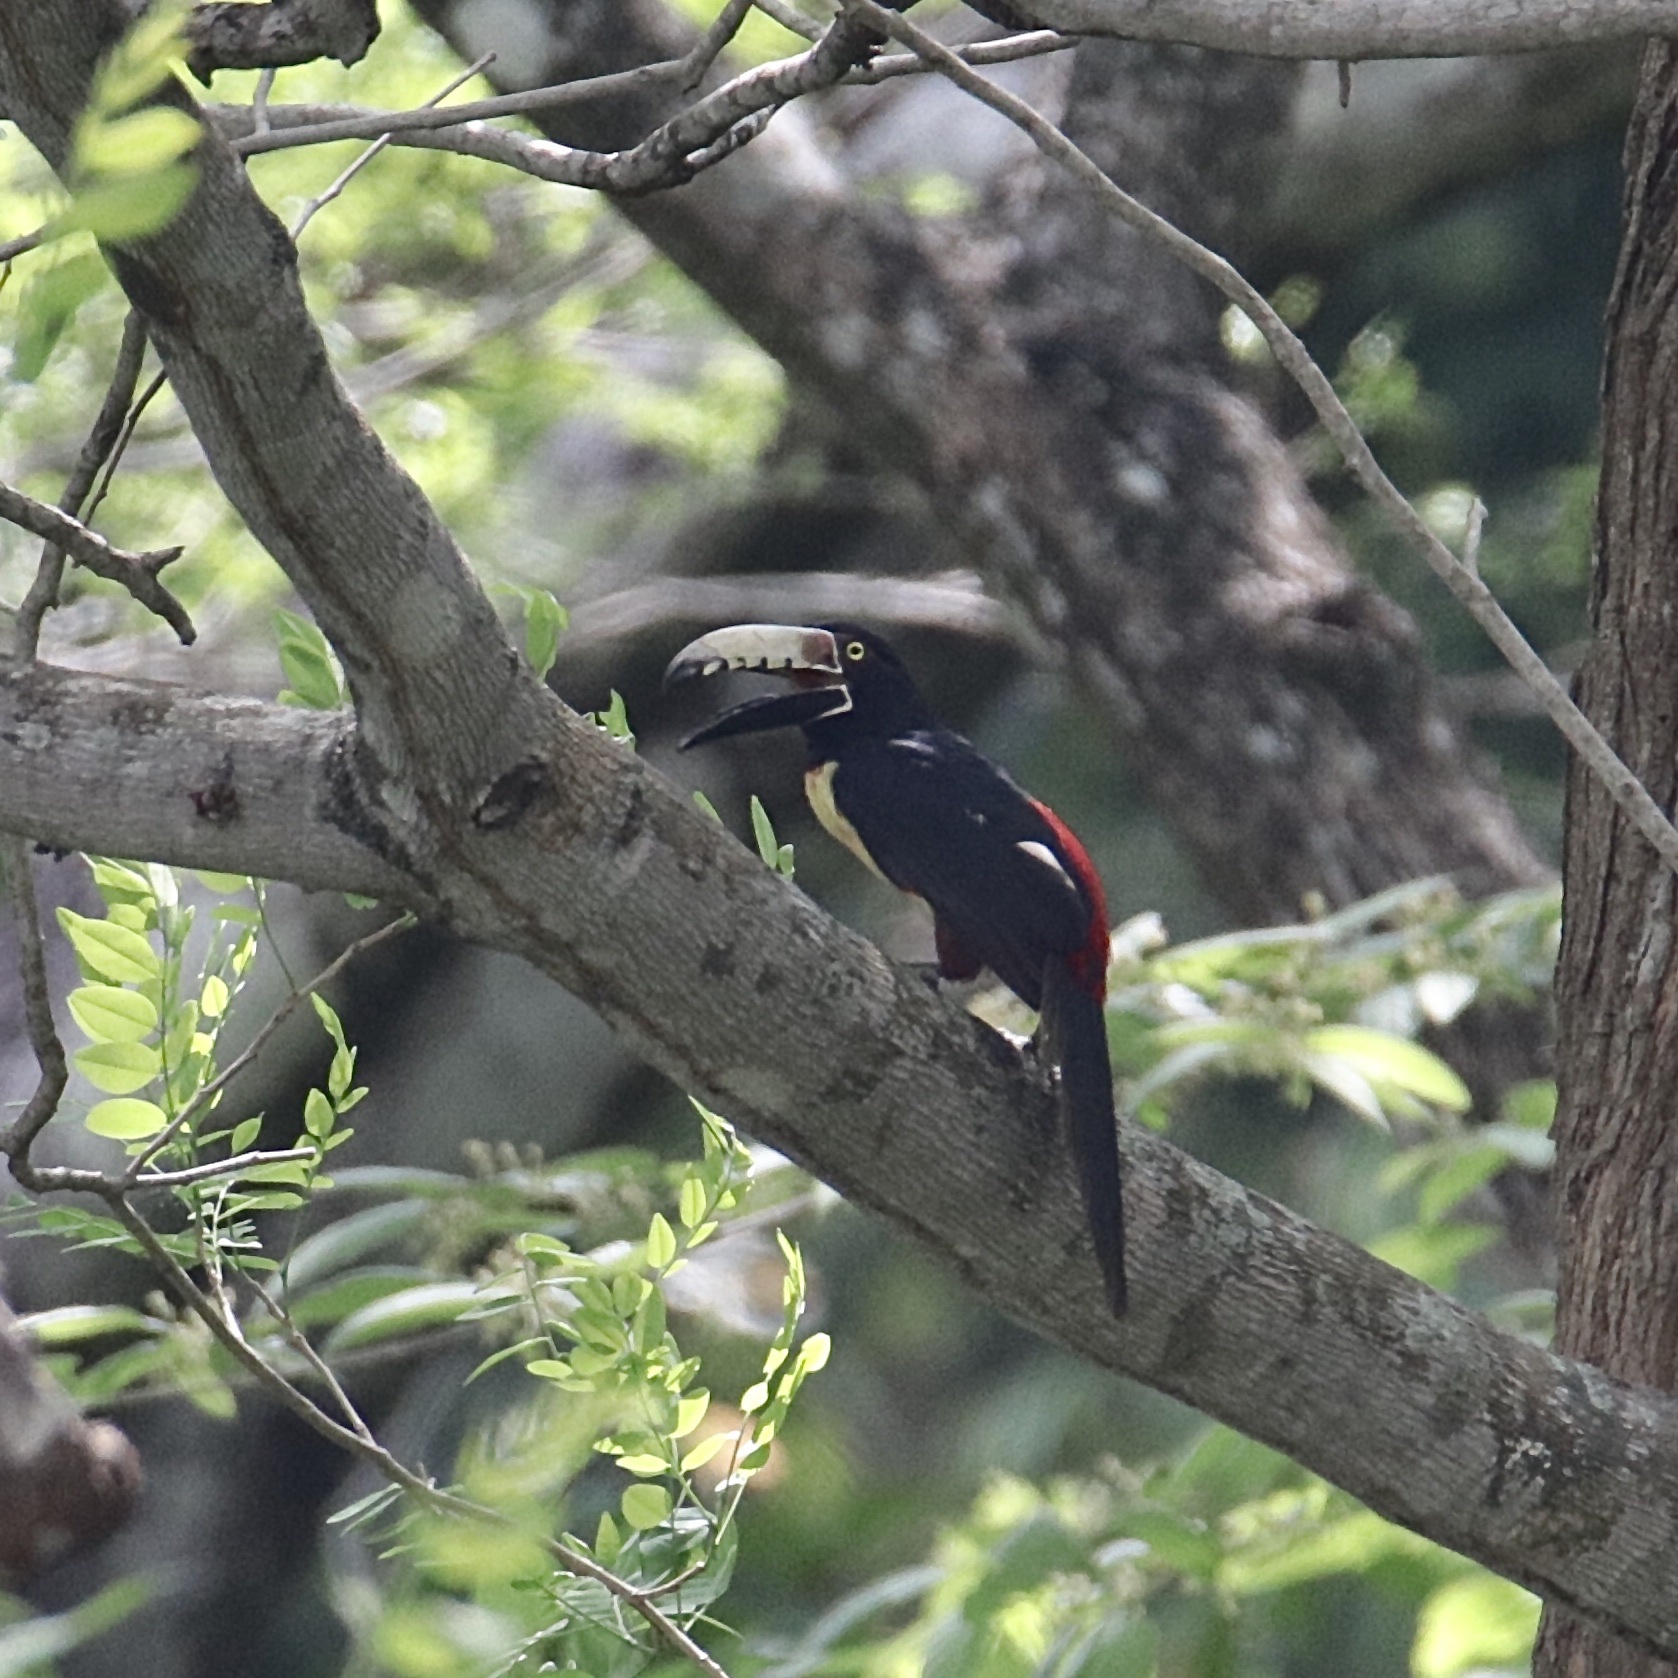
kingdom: Animalia
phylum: Chordata
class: Aves
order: Piciformes
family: Ramphastidae
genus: Pteroglossus
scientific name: Pteroglossus torquatus
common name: Collared aracari
